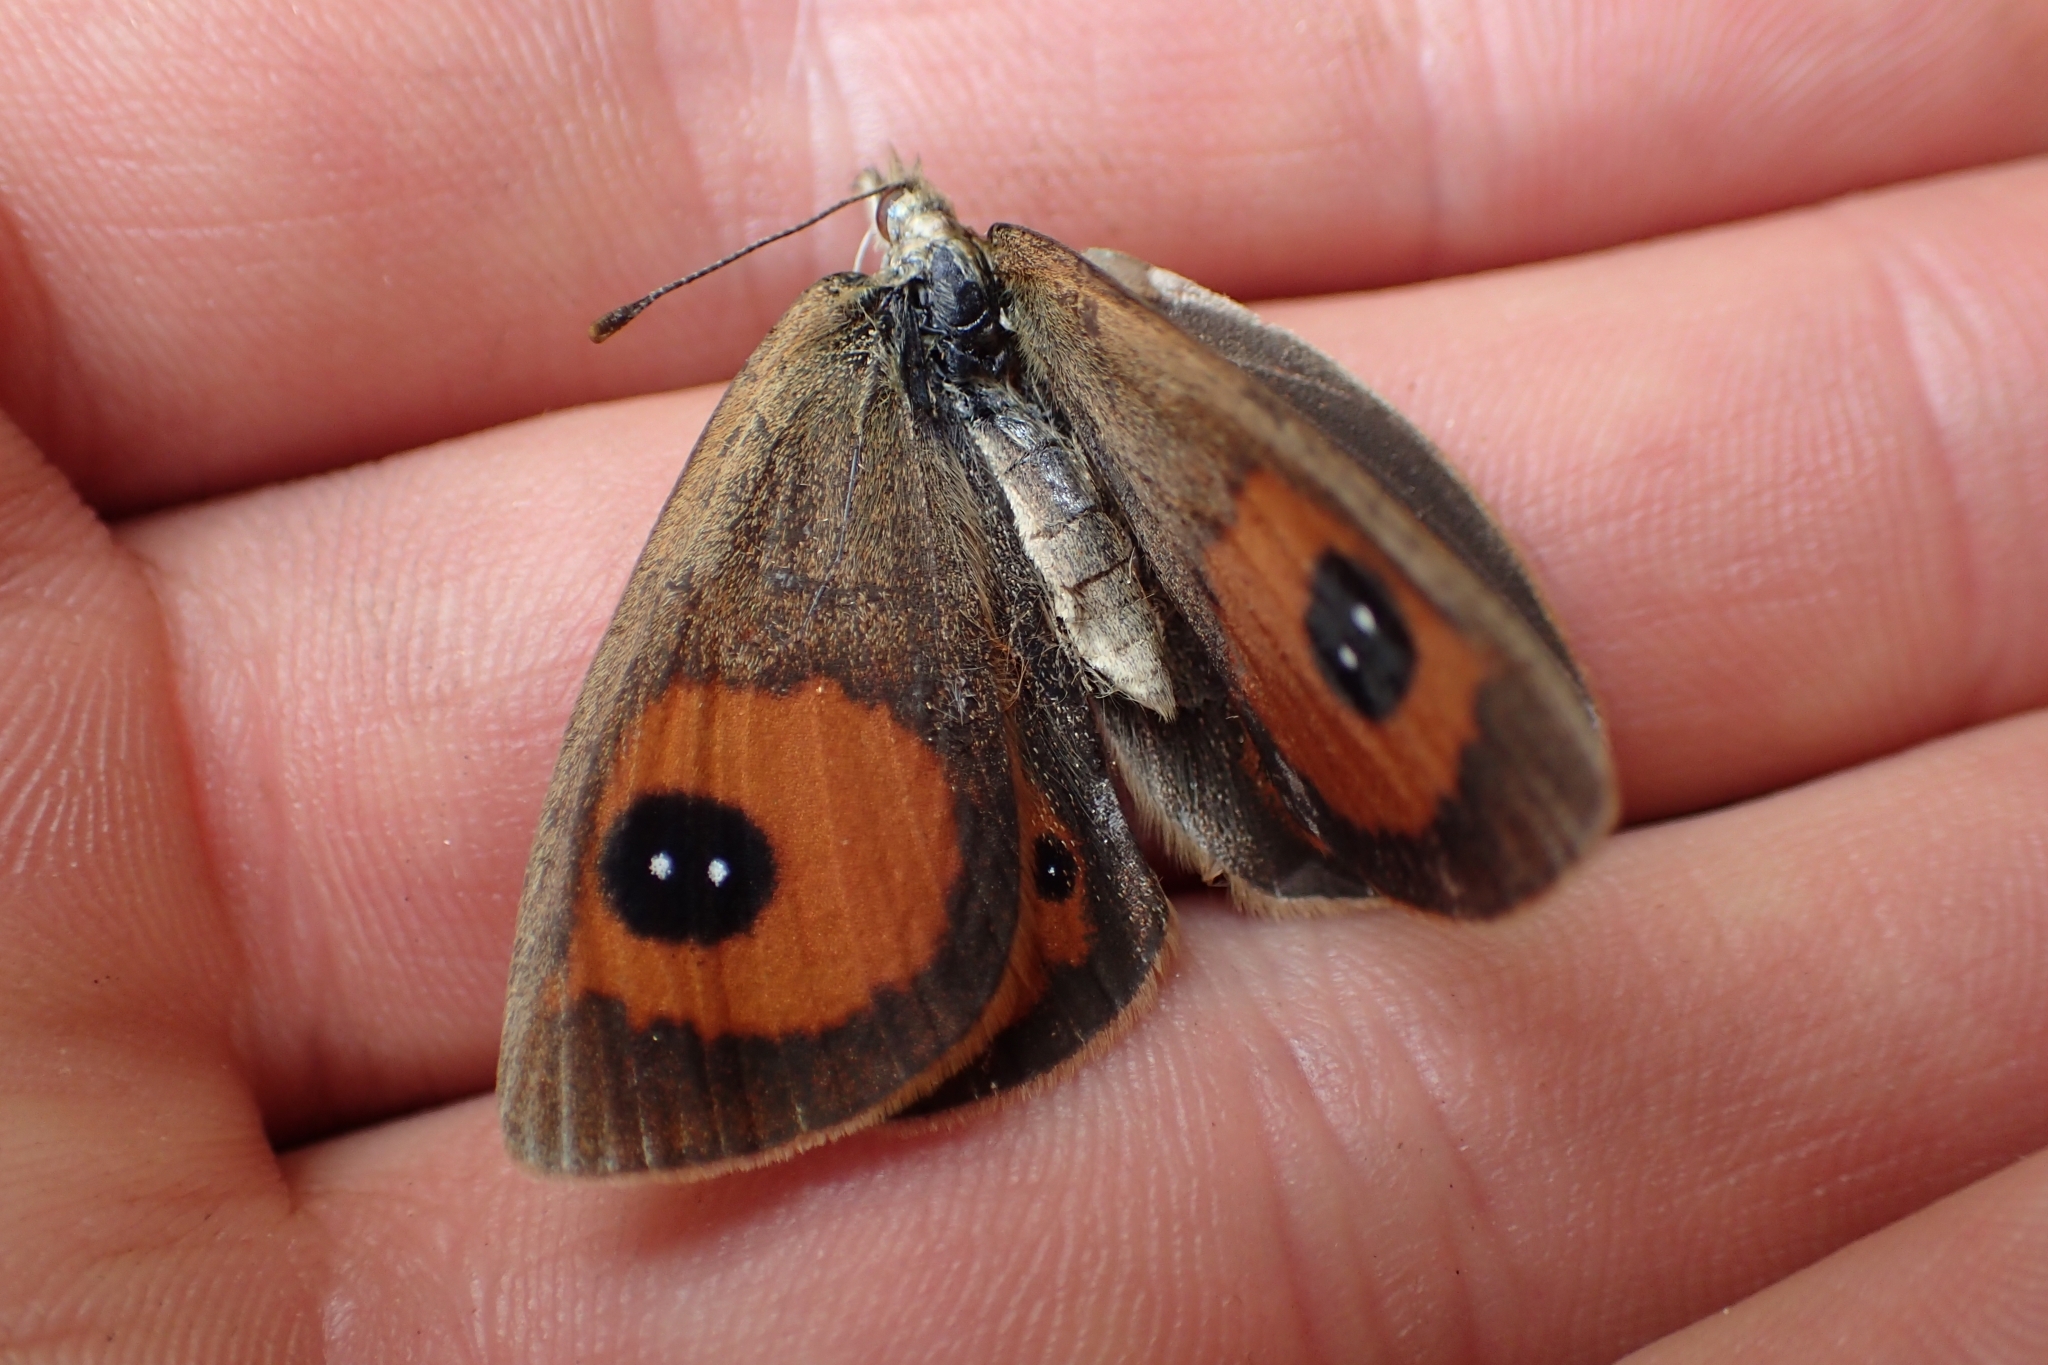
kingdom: Animalia
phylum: Arthropoda
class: Insecta
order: Lepidoptera
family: Nymphalidae
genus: Argyrophenga
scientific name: Argyrophenga antipodum
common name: Common tussock butterfly
